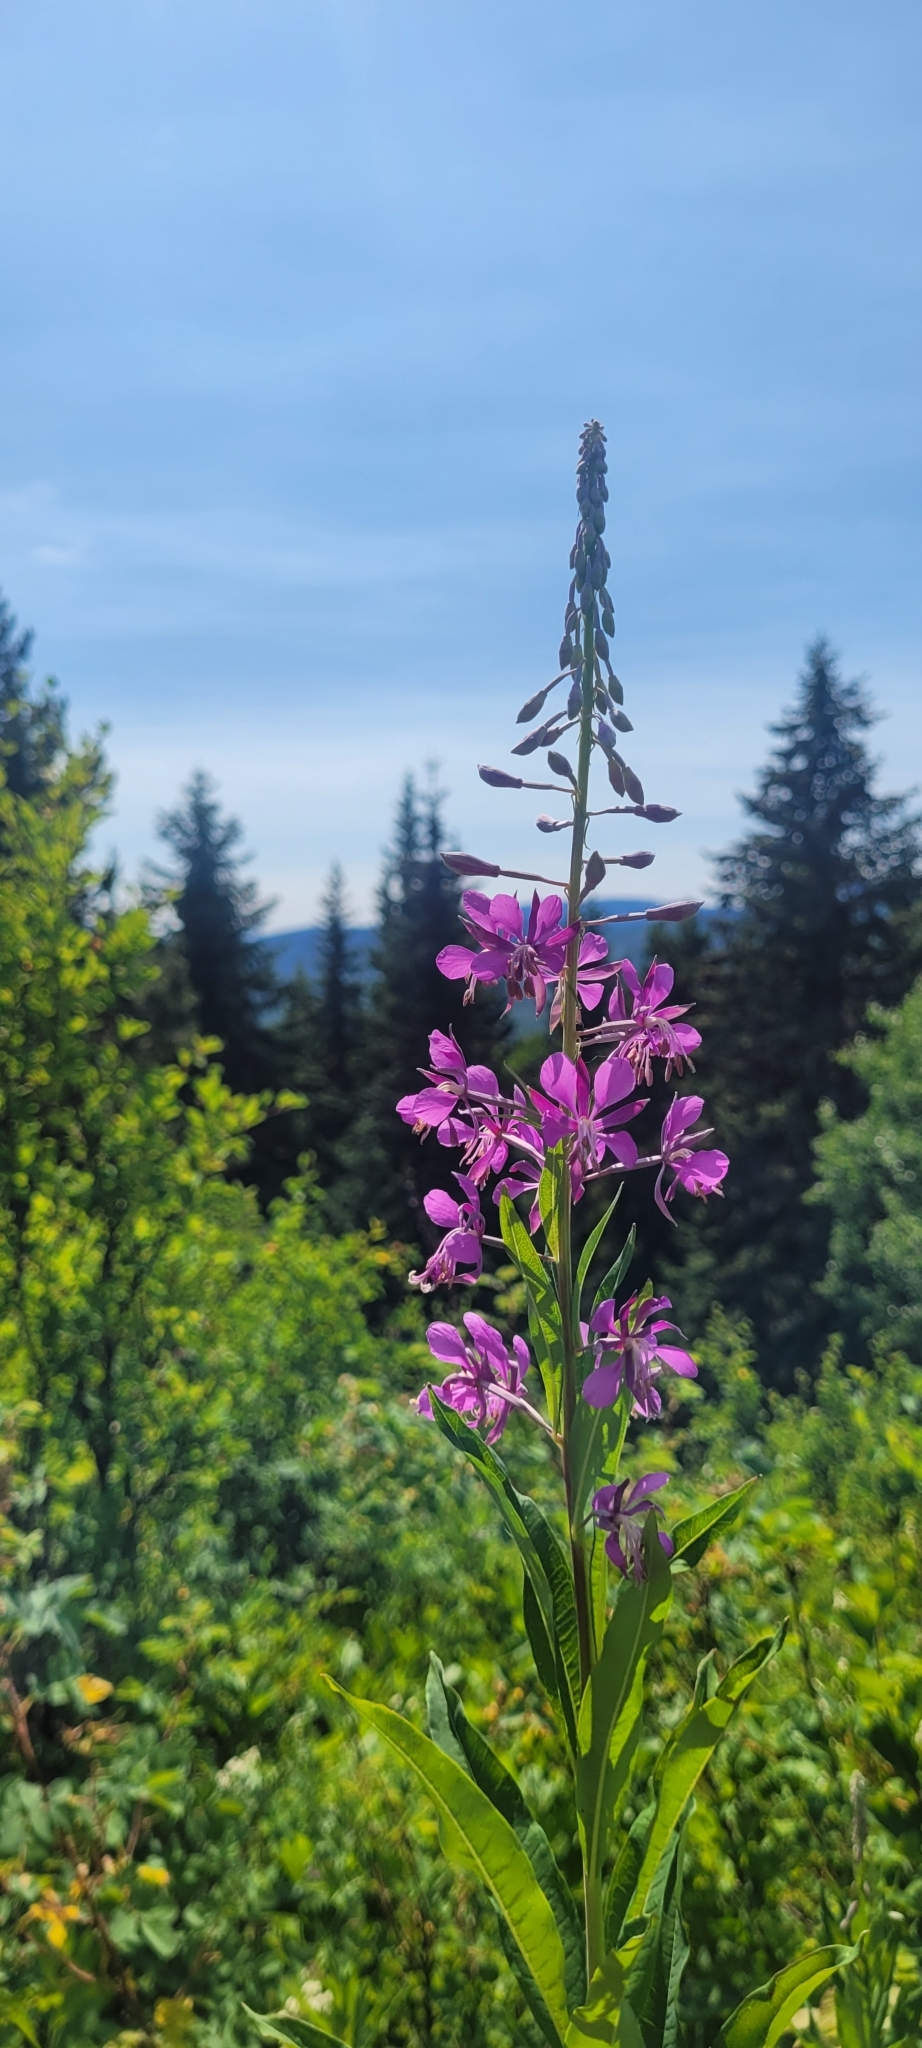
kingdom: Plantae
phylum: Tracheophyta
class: Magnoliopsida
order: Myrtales
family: Onagraceae
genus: Chamaenerion
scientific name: Chamaenerion angustifolium
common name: Fireweed
